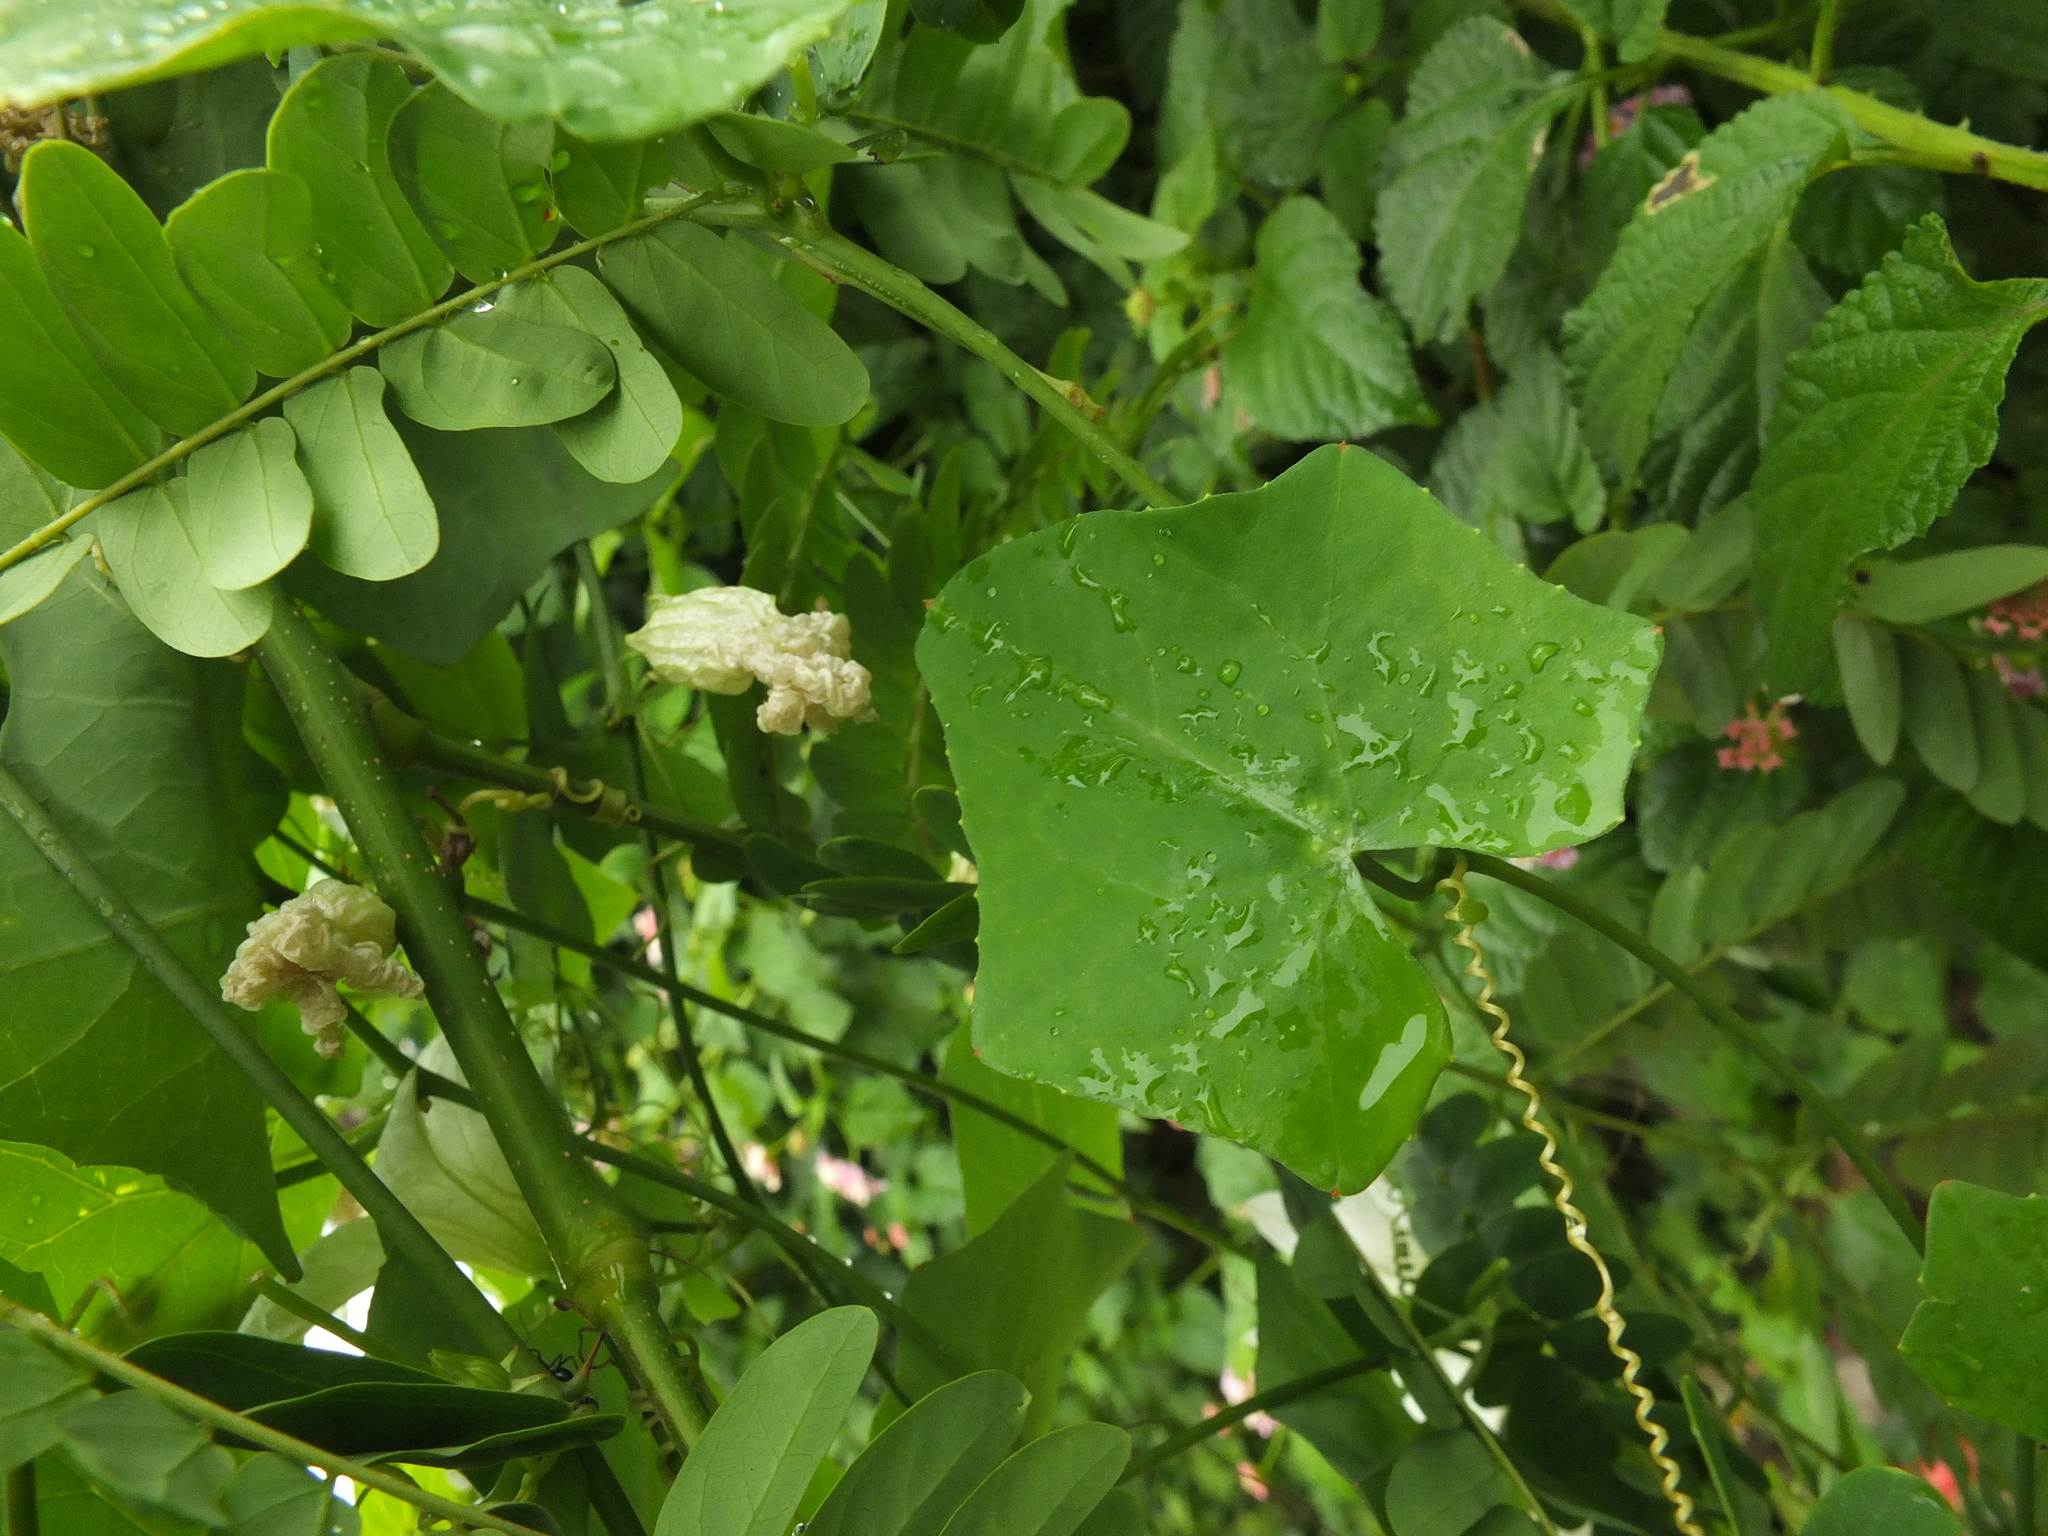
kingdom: Plantae
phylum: Tracheophyta
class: Magnoliopsida
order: Cucurbitales
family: Cucurbitaceae
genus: Coccinia
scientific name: Coccinia grandis
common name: Ivy gourd
